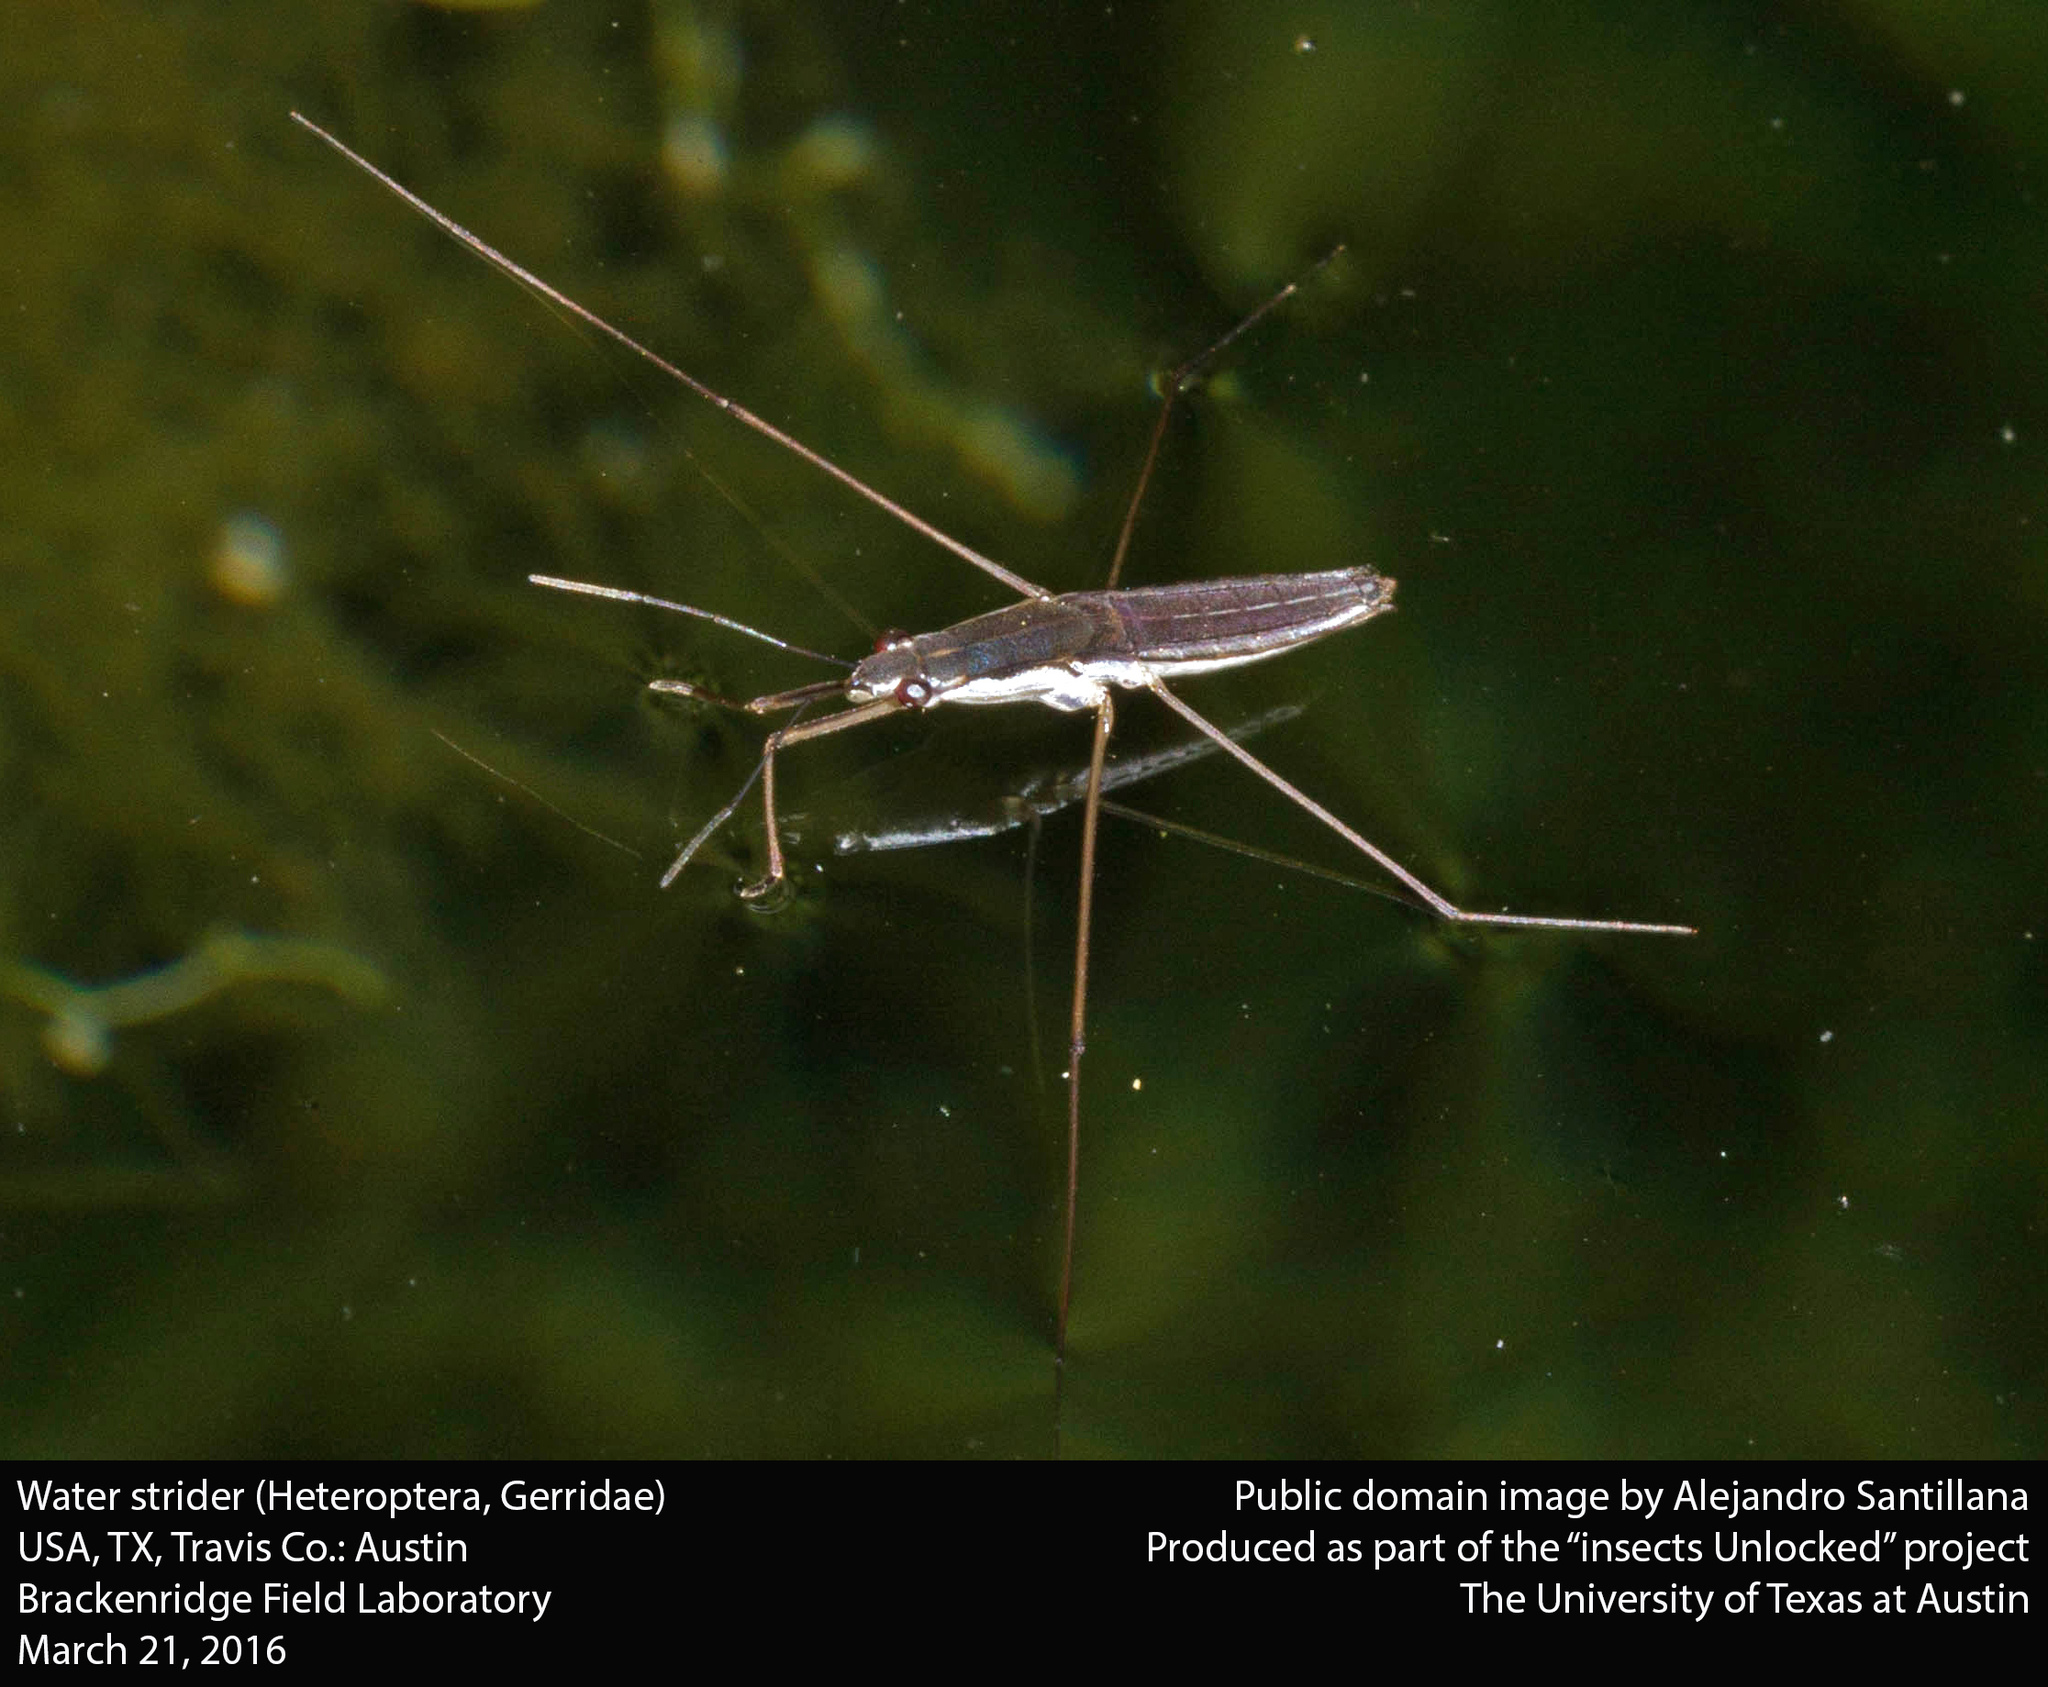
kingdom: Animalia
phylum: Arthropoda
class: Insecta
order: Hemiptera
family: Gerridae
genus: Limnoporus
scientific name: Limnoporus canaliculatus
